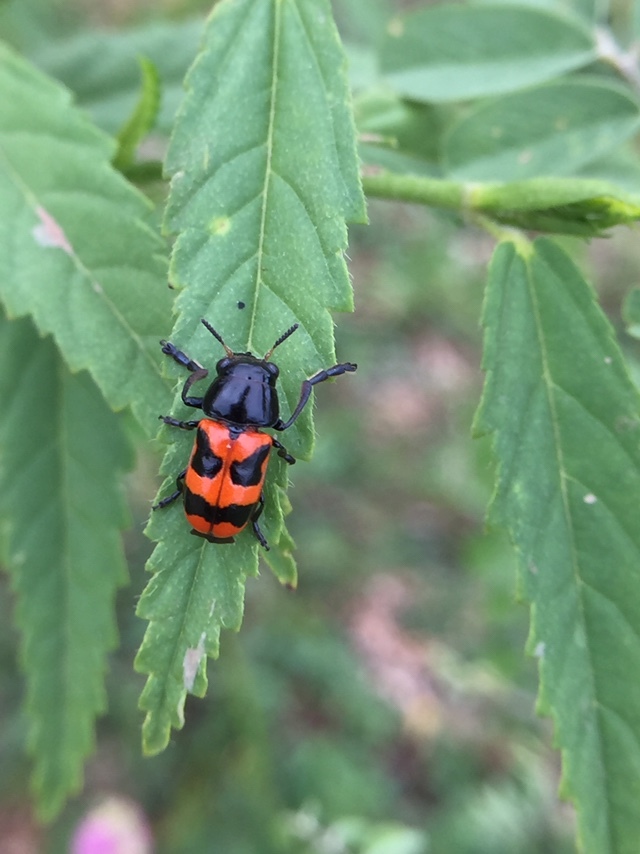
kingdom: Animalia
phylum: Arthropoda
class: Insecta
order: Coleoptera
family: Chrysomelidae
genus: Merilia
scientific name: Merilia
